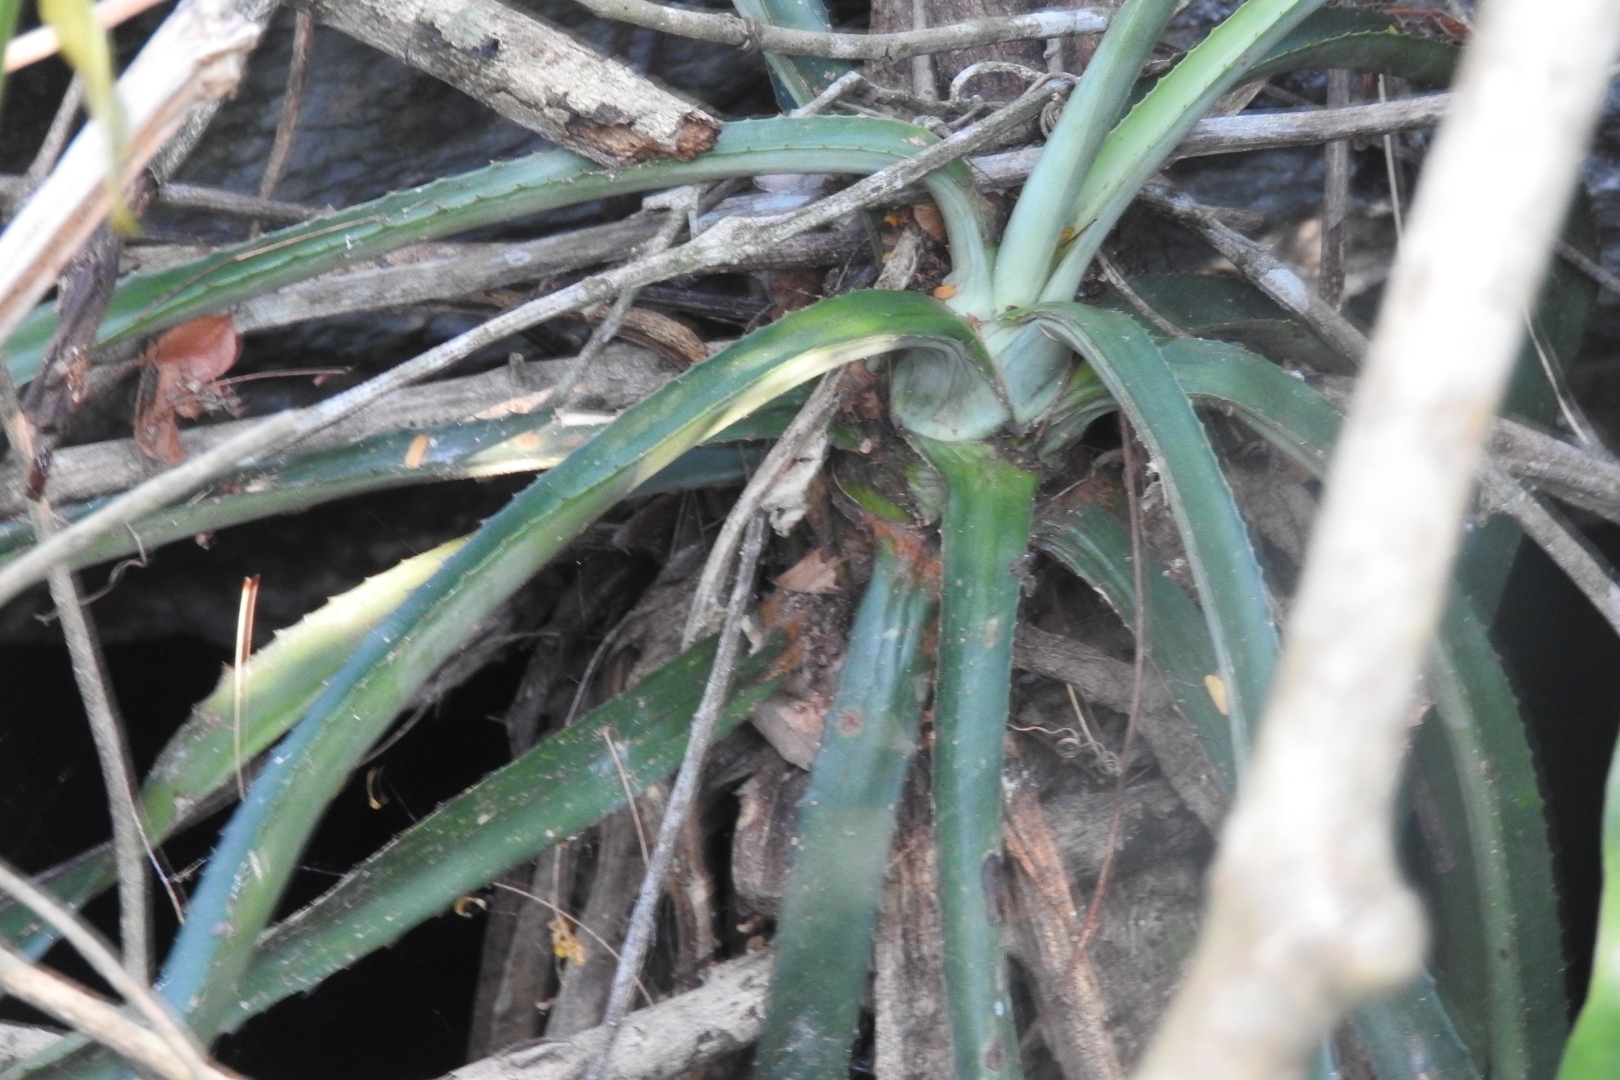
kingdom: Plantae
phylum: Tracheophyta
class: Liliopsida
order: Asparagales
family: Asparagaceae
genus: Agave
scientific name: Agave vivipara
